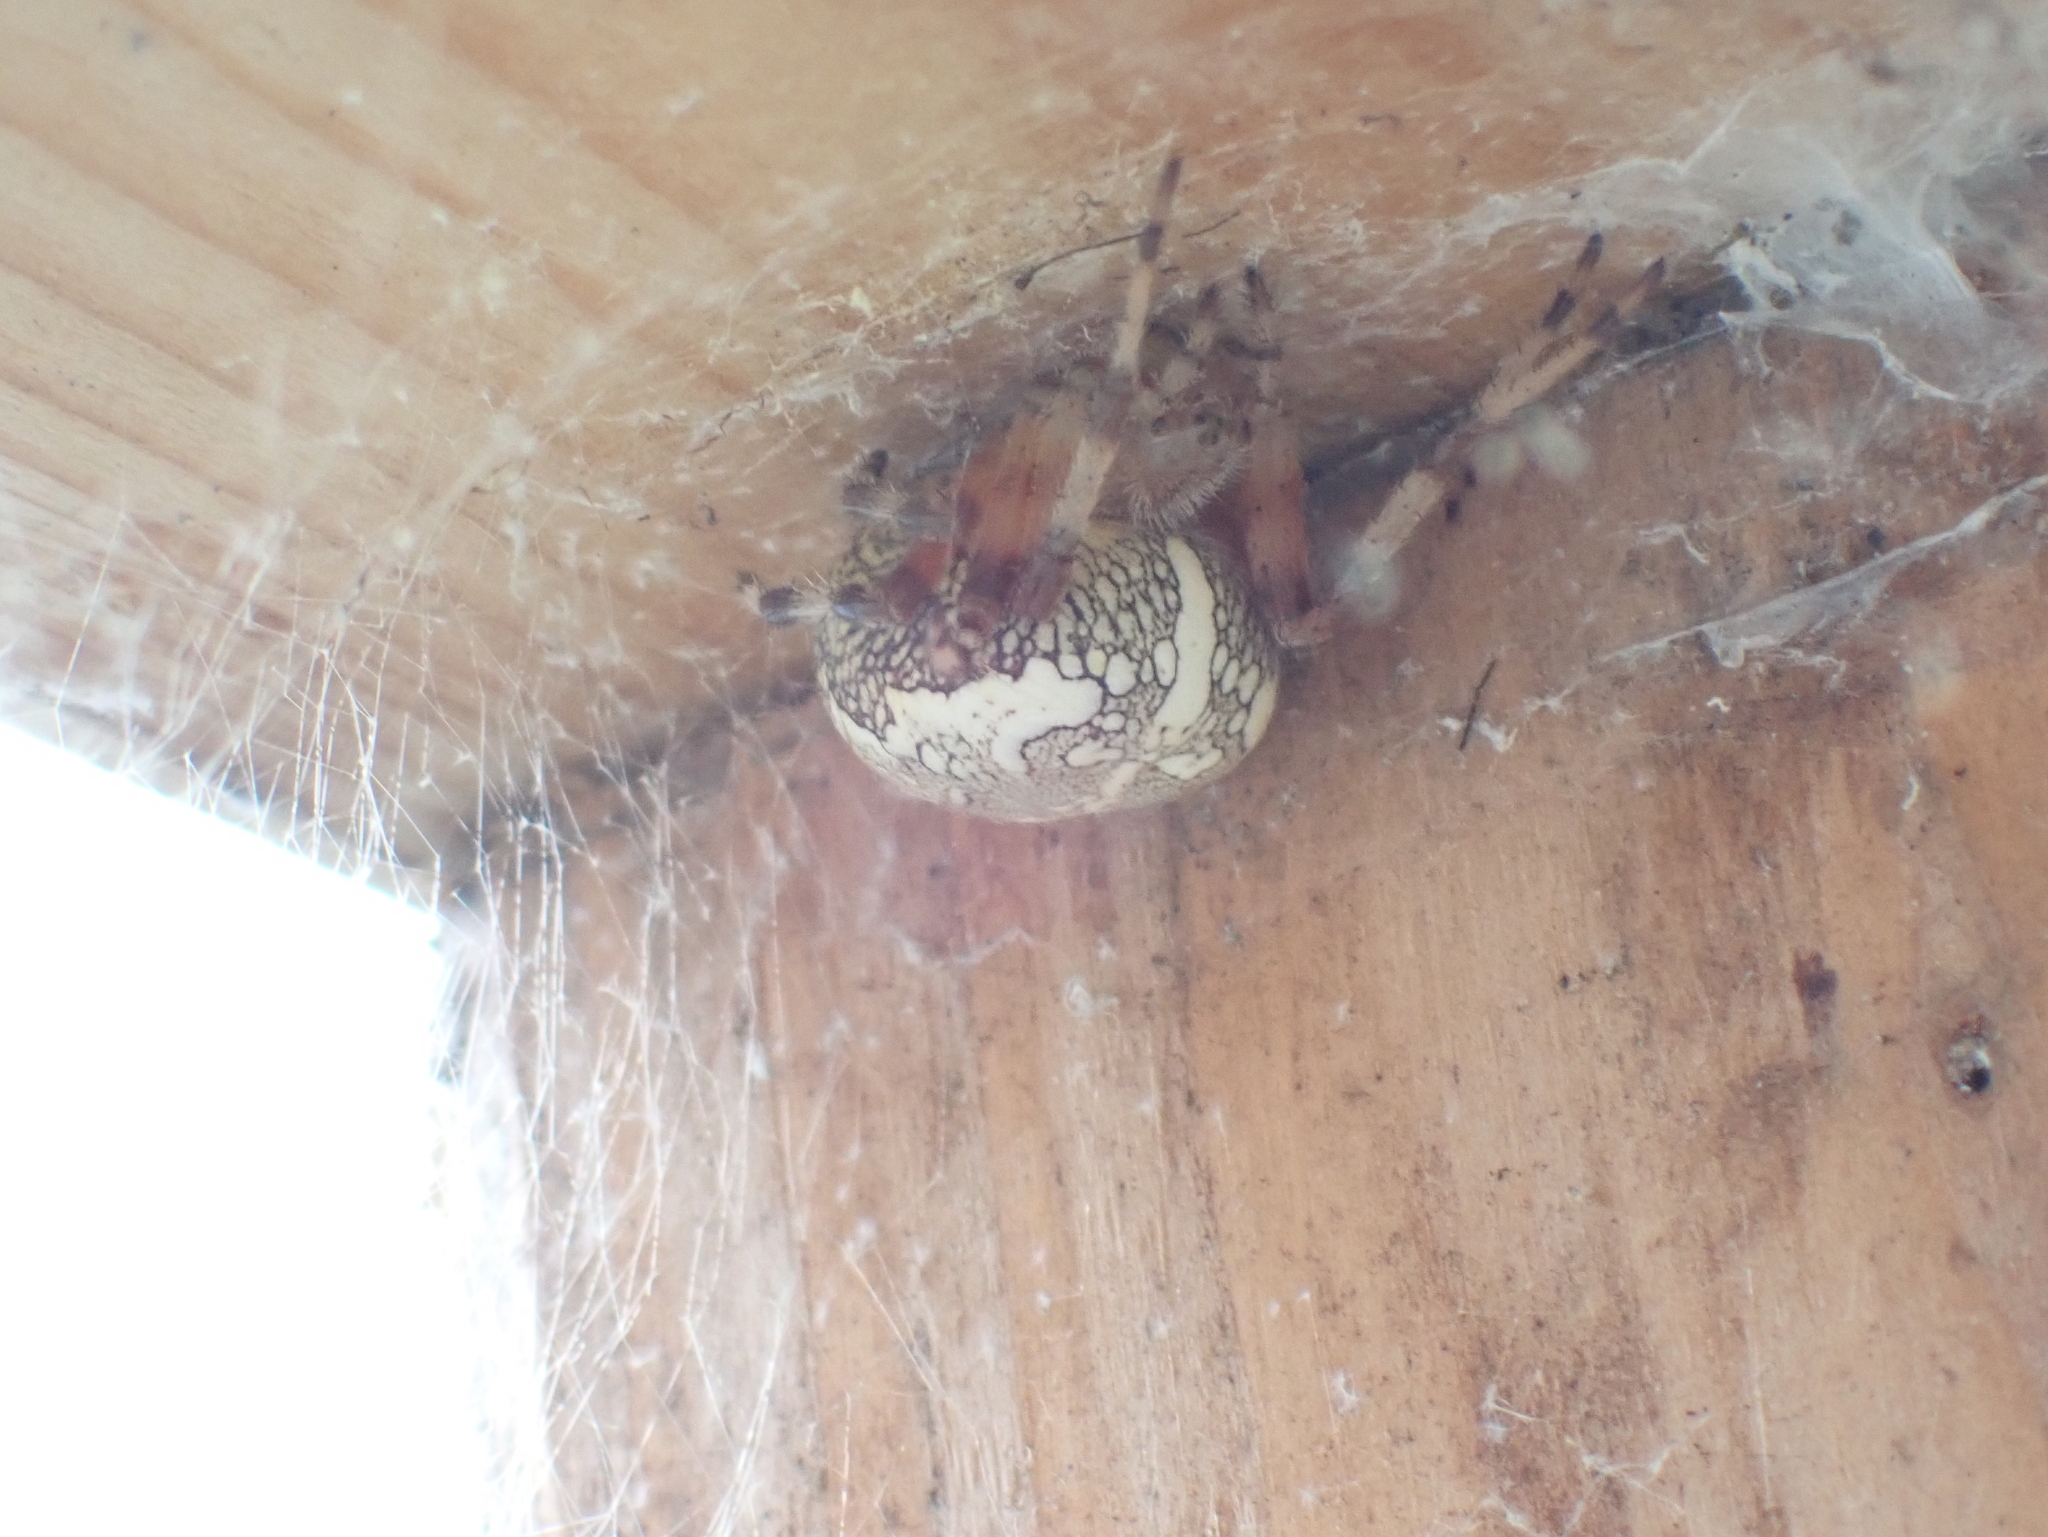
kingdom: Animalia
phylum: Arthropoda
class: Arachnida
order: Araneae
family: Araneidae
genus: Araneus
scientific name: Araneus marmoreus
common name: Marbled orbweaver
